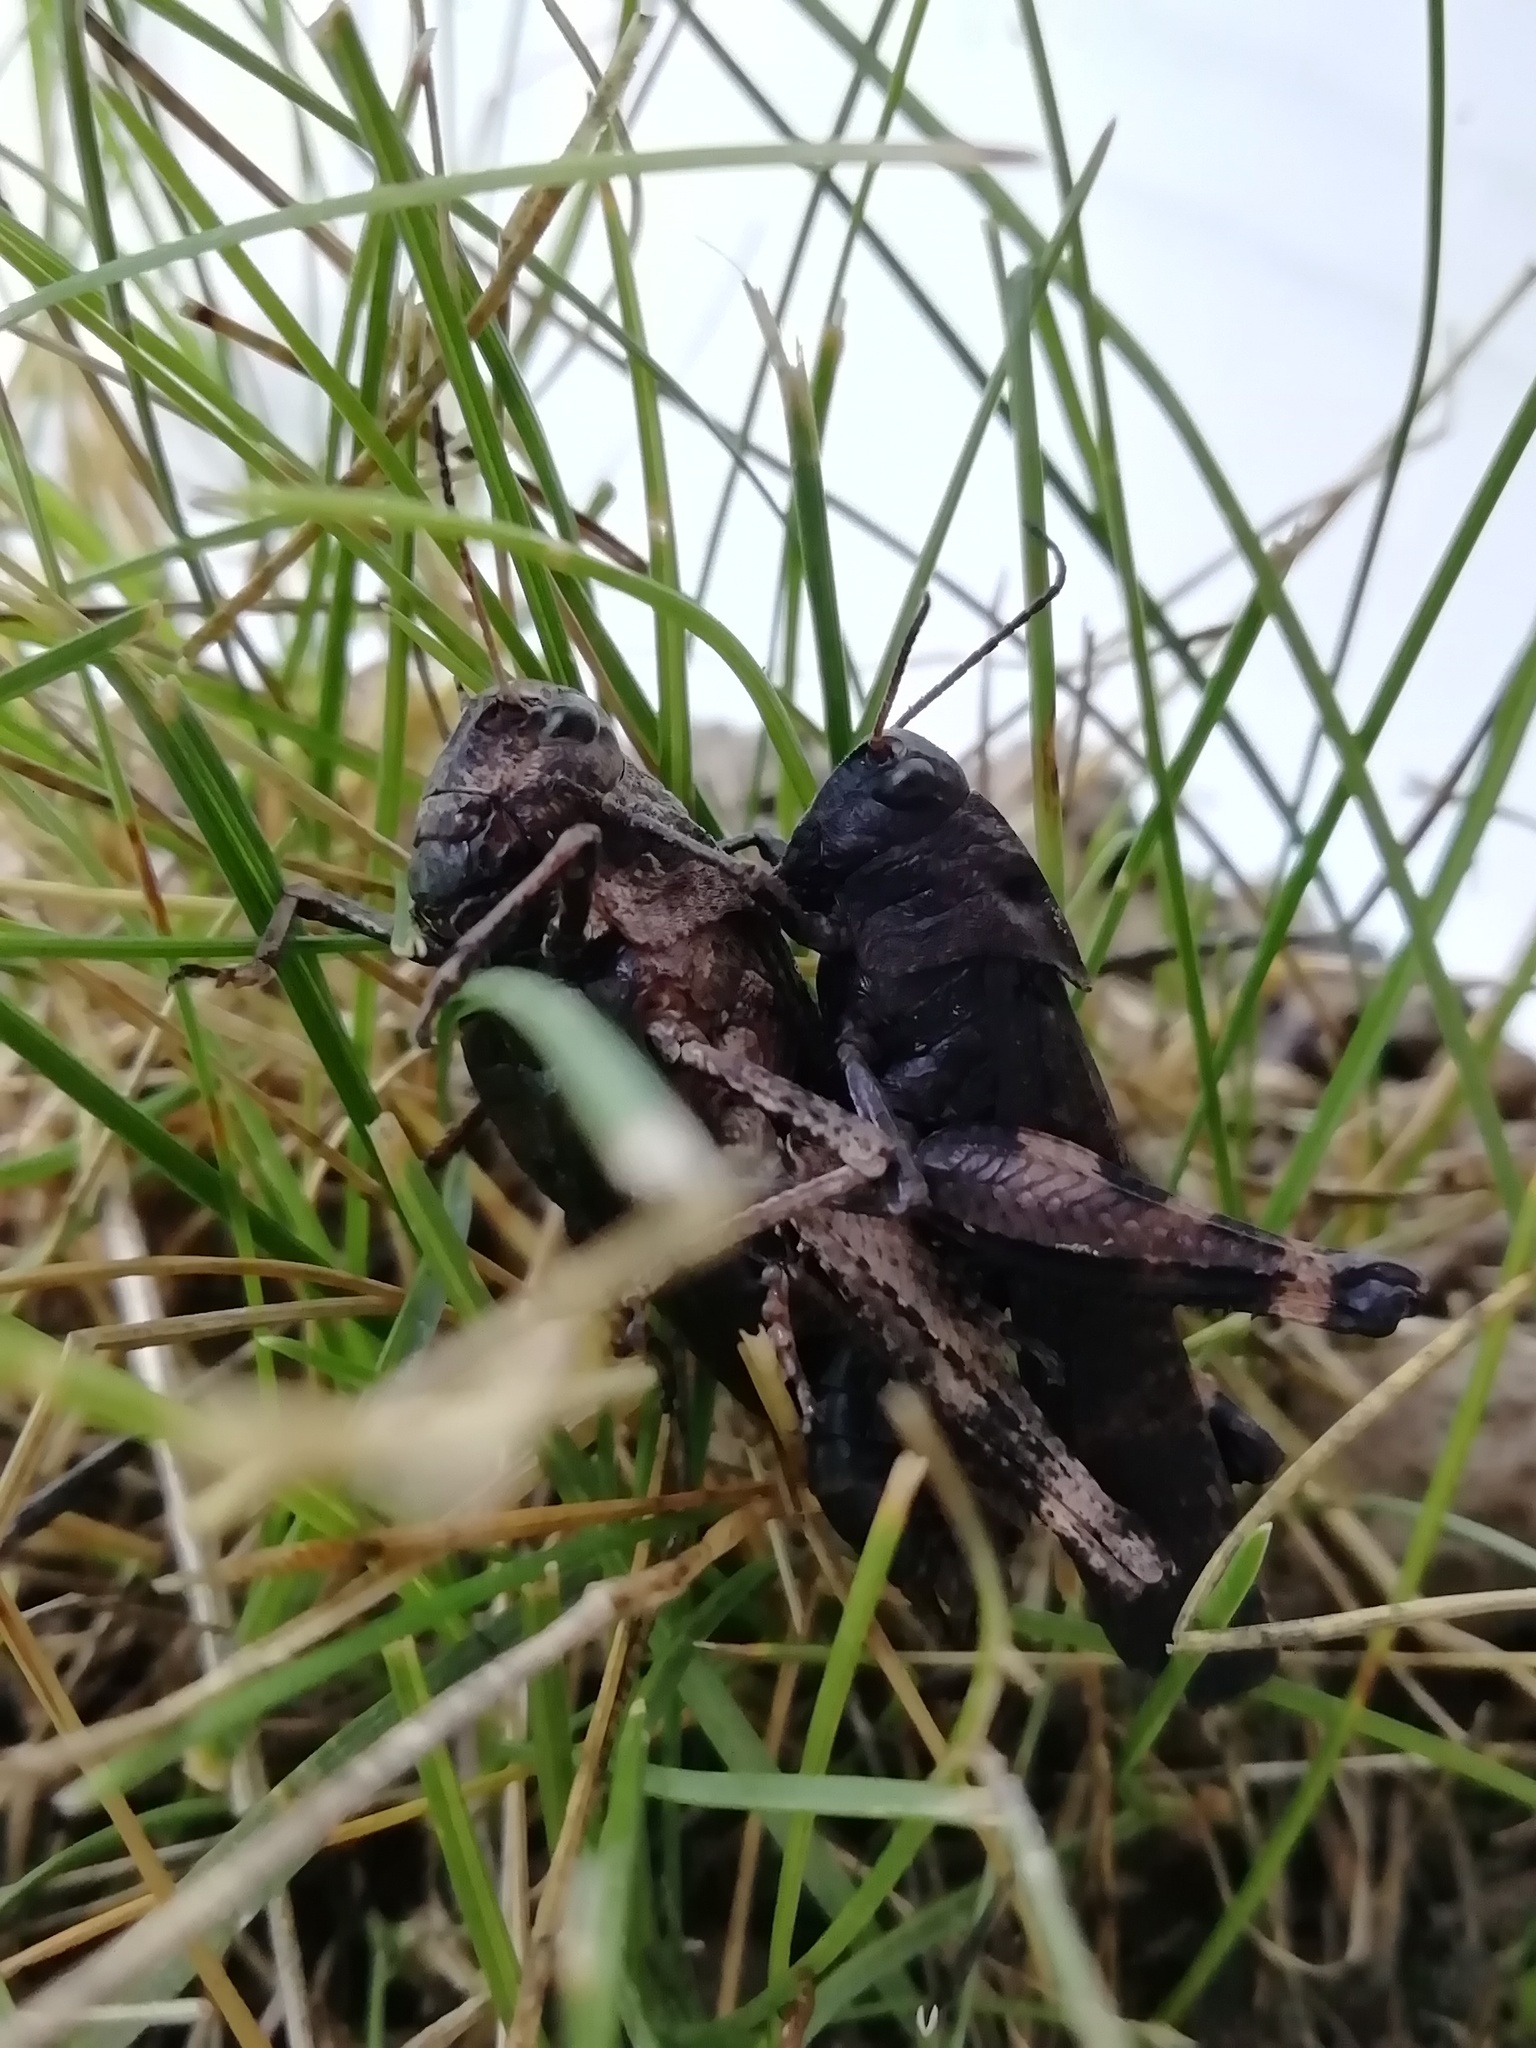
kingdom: Animalia
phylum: Arthropoda
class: Insecta
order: Orthoptera
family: Acrididae
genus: Psophus
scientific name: Psophus stridulus
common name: Rattle grasshopper
